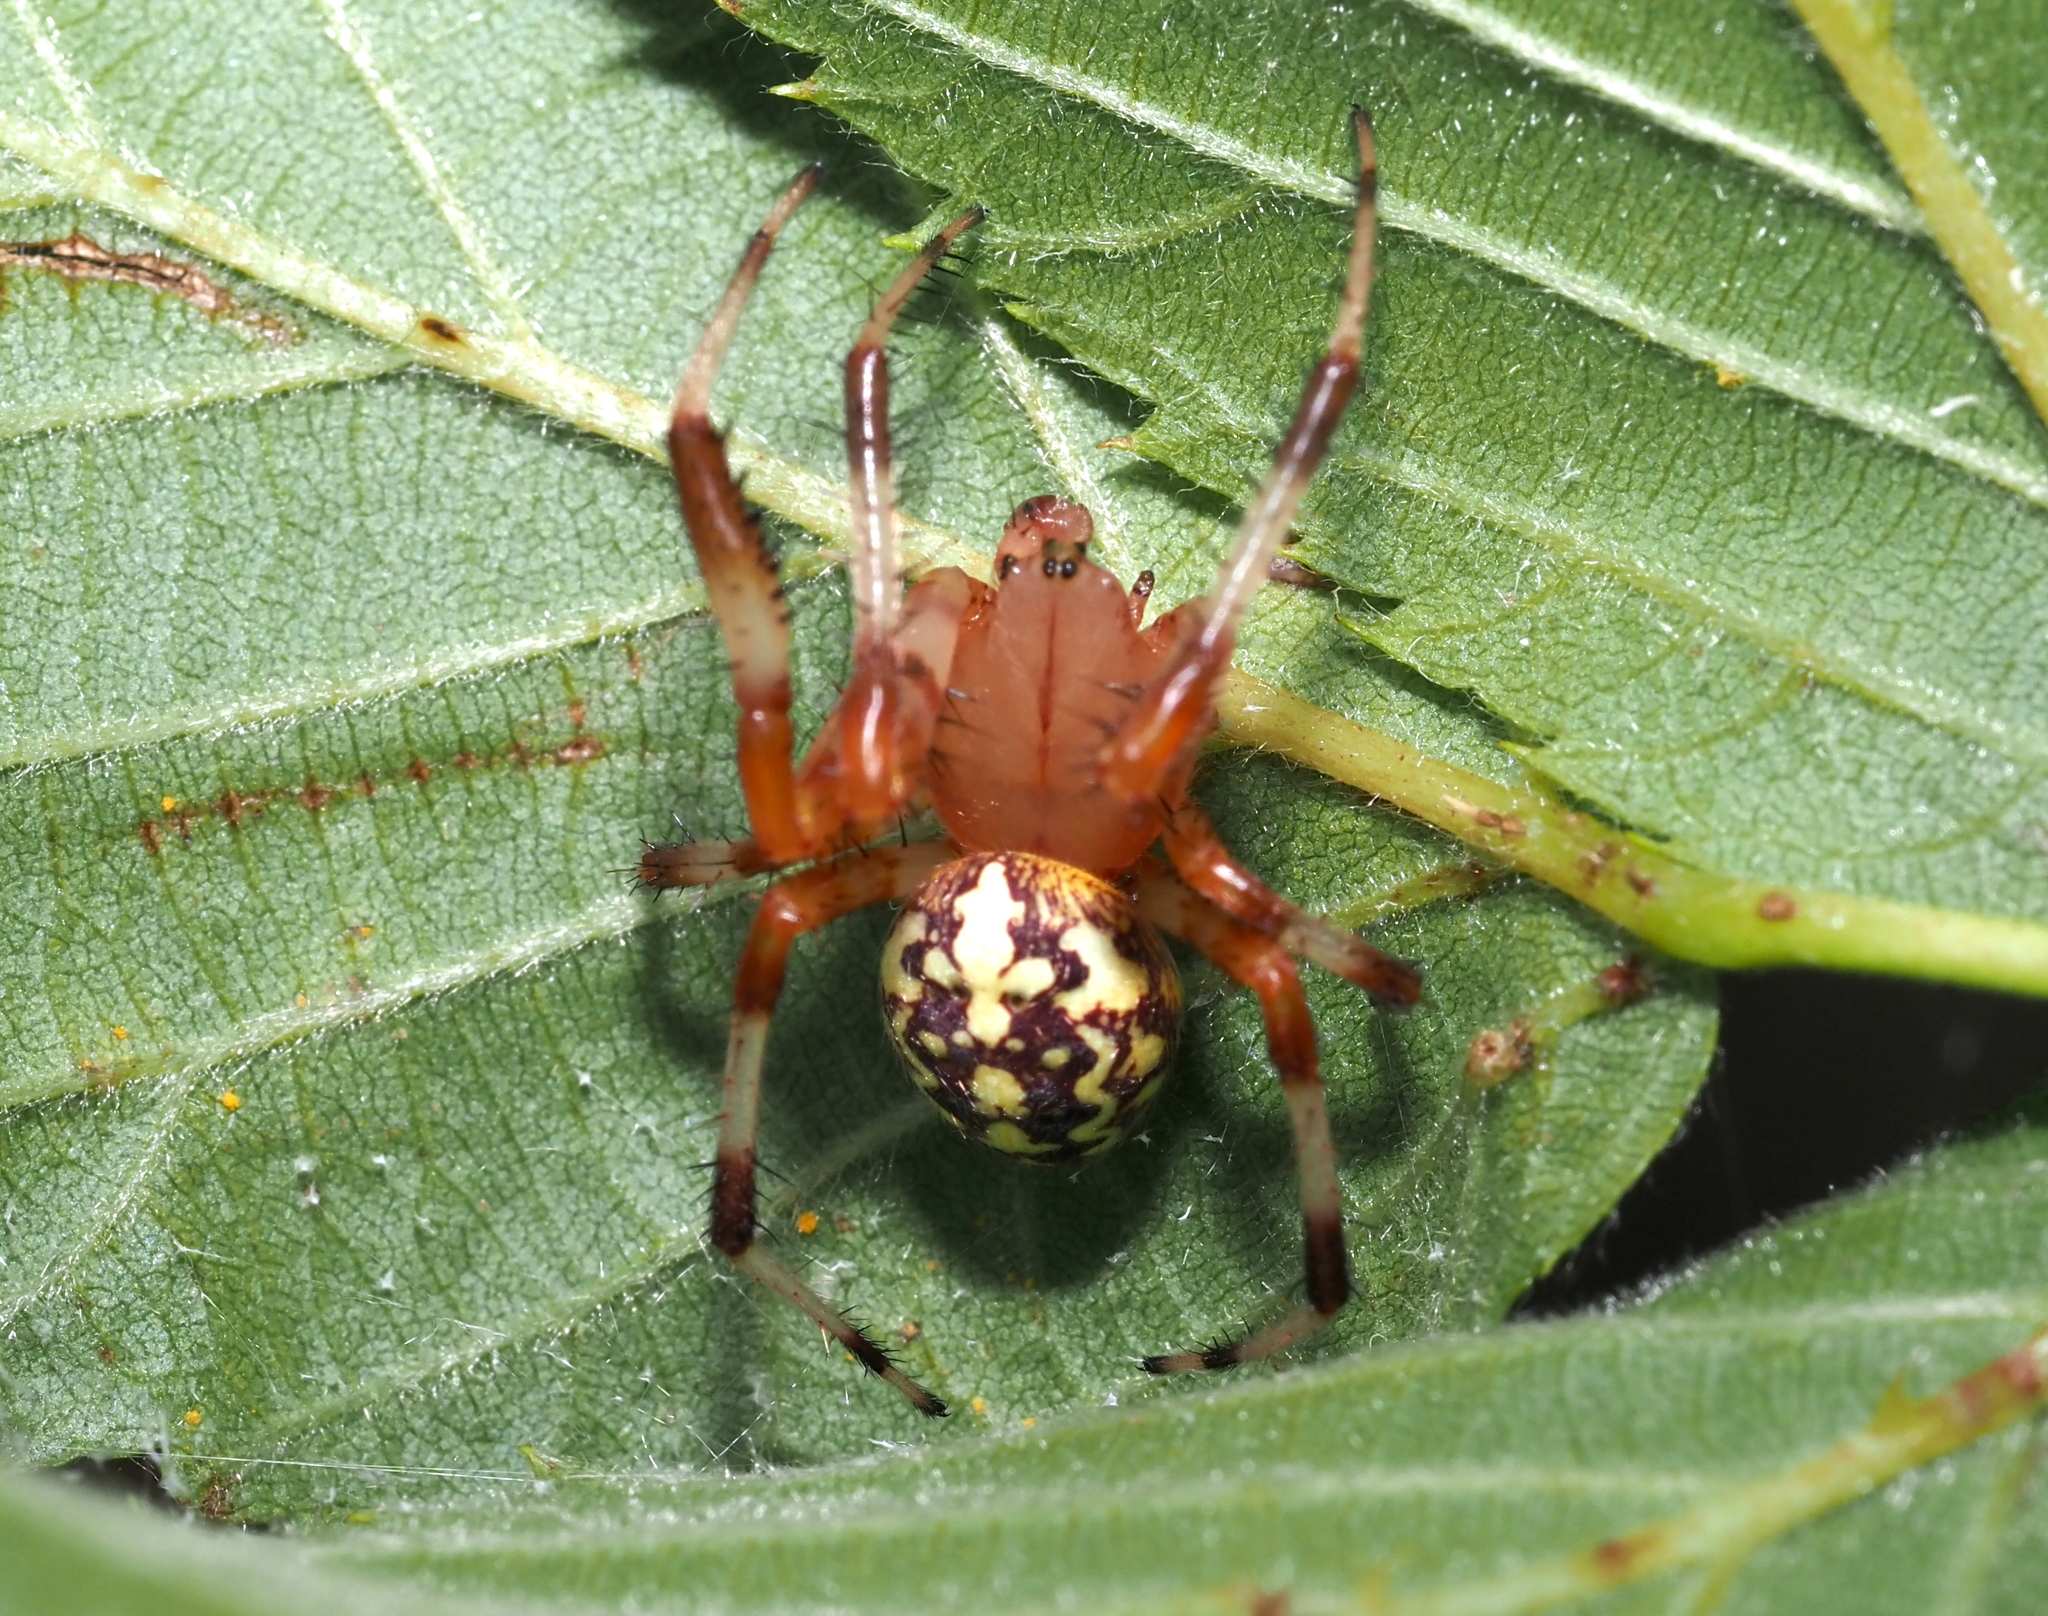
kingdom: Animalia
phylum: Arthropoda
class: Arachnida
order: Araneae
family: Araneidae
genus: Araneus
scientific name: Araneus marmoreus
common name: Marbled orbweaver
